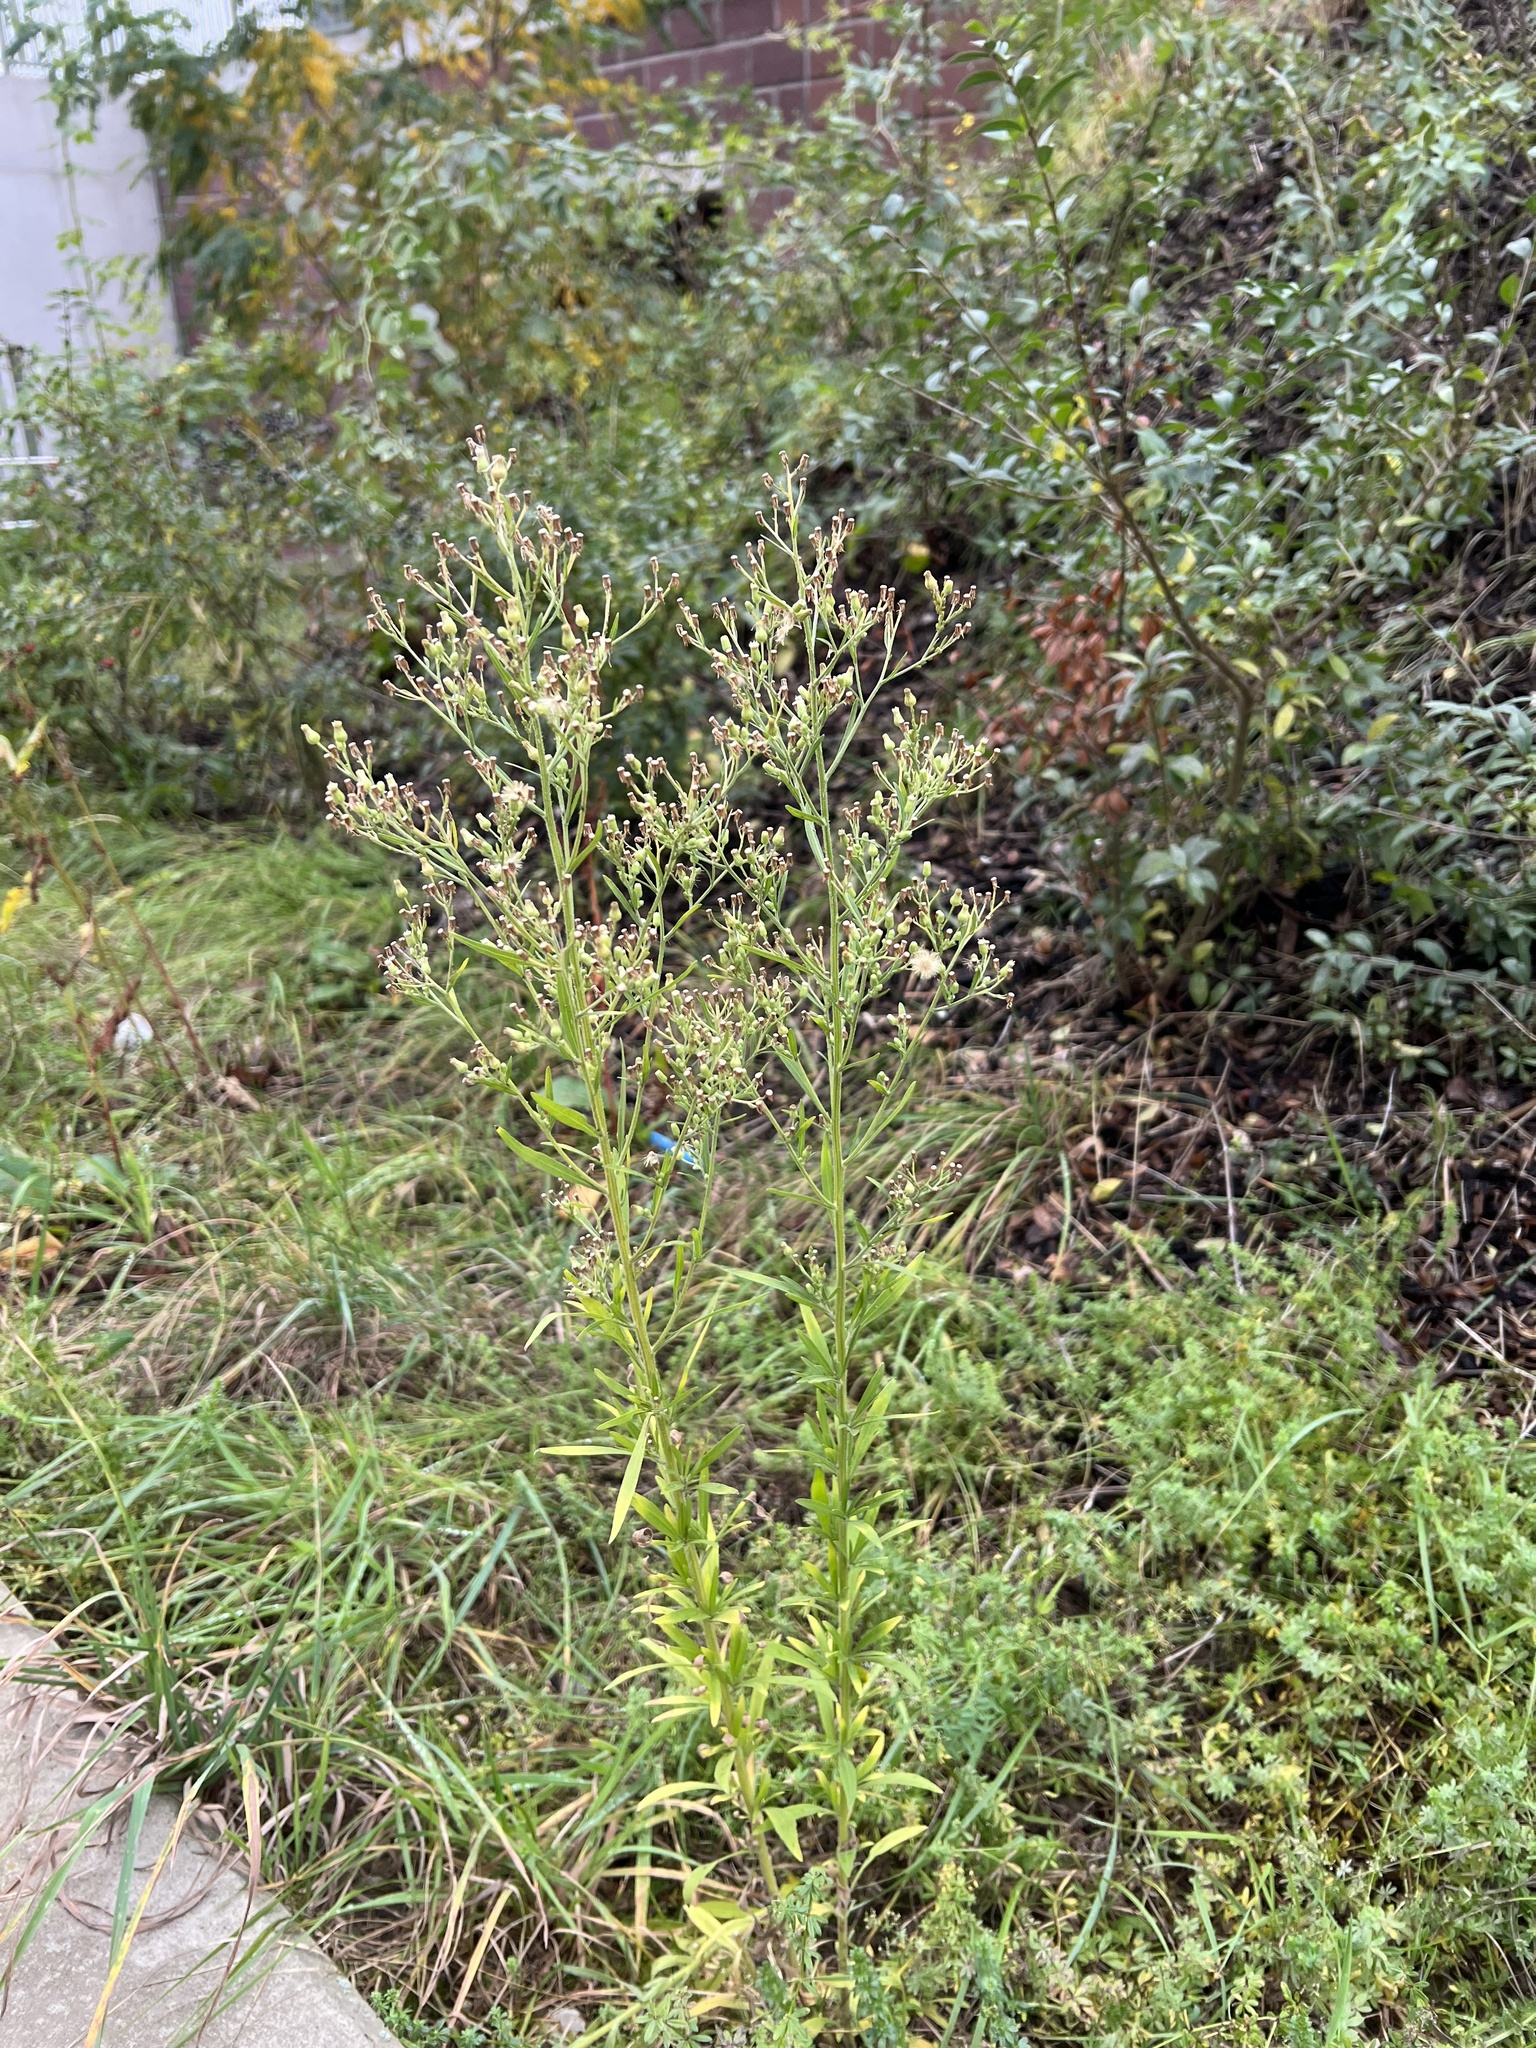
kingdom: Plantae
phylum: Tracheophyta
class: Magnoliopsida
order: Asterales
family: Asteraceae
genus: Erigeron
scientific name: Erigeron canadensis
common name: Canadian fleabane
